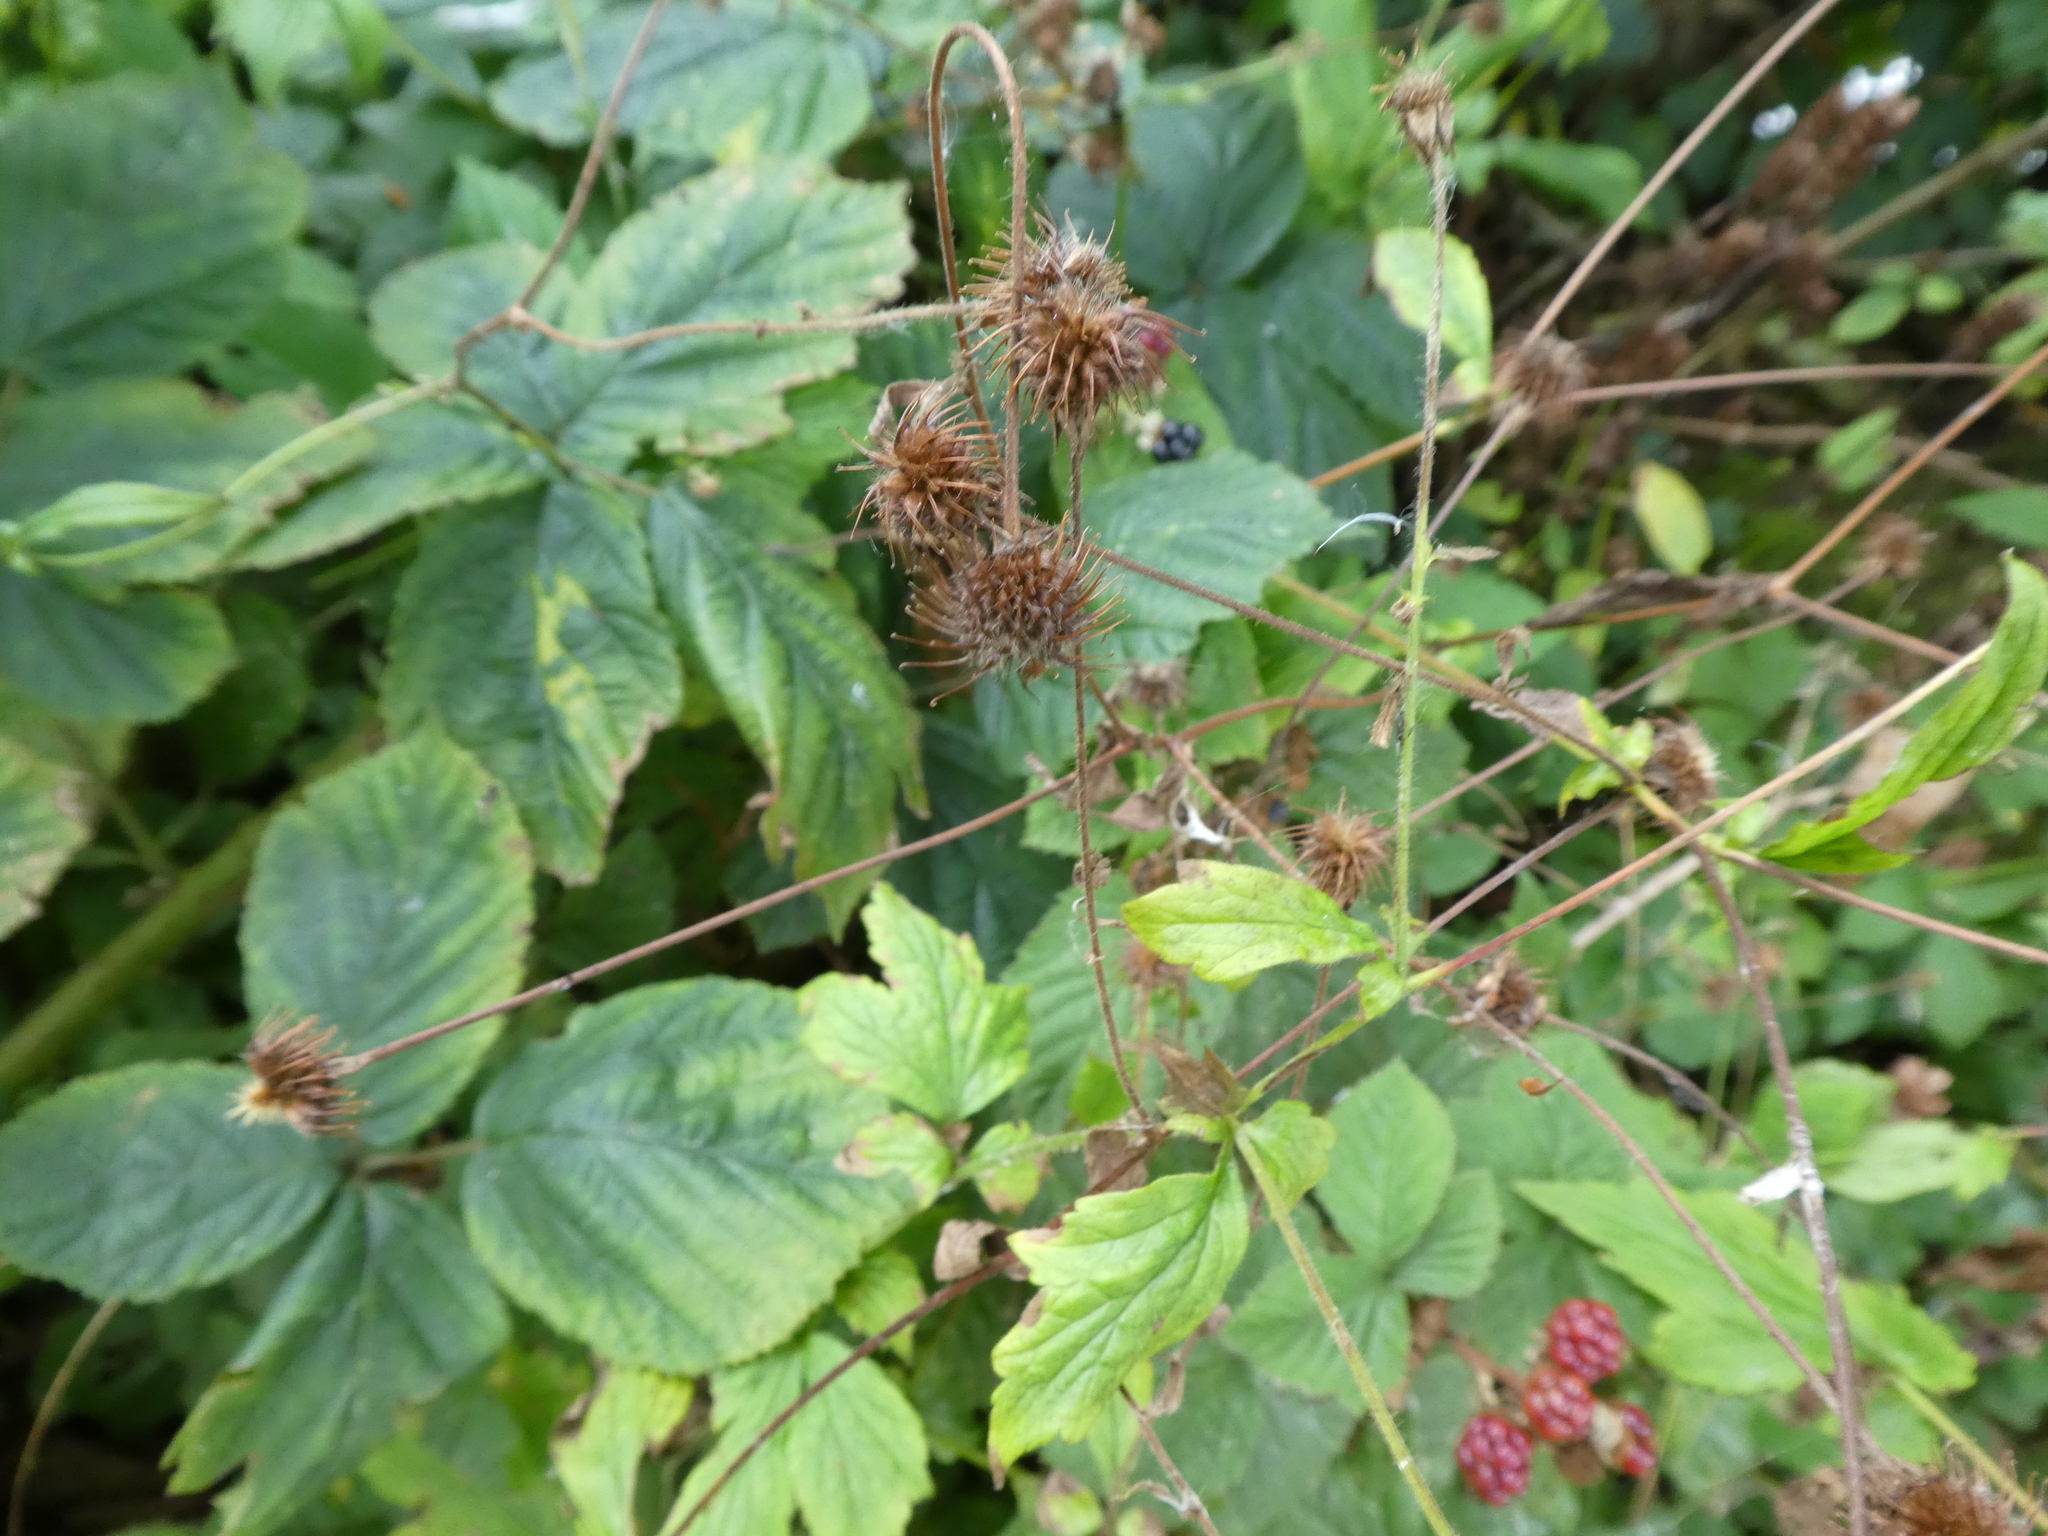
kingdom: Plantae
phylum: Tracheophyta
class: Magnoliopsida
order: Rosales
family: Rosaceae
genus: Geum
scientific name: Geum urbanum
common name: Wood avens
